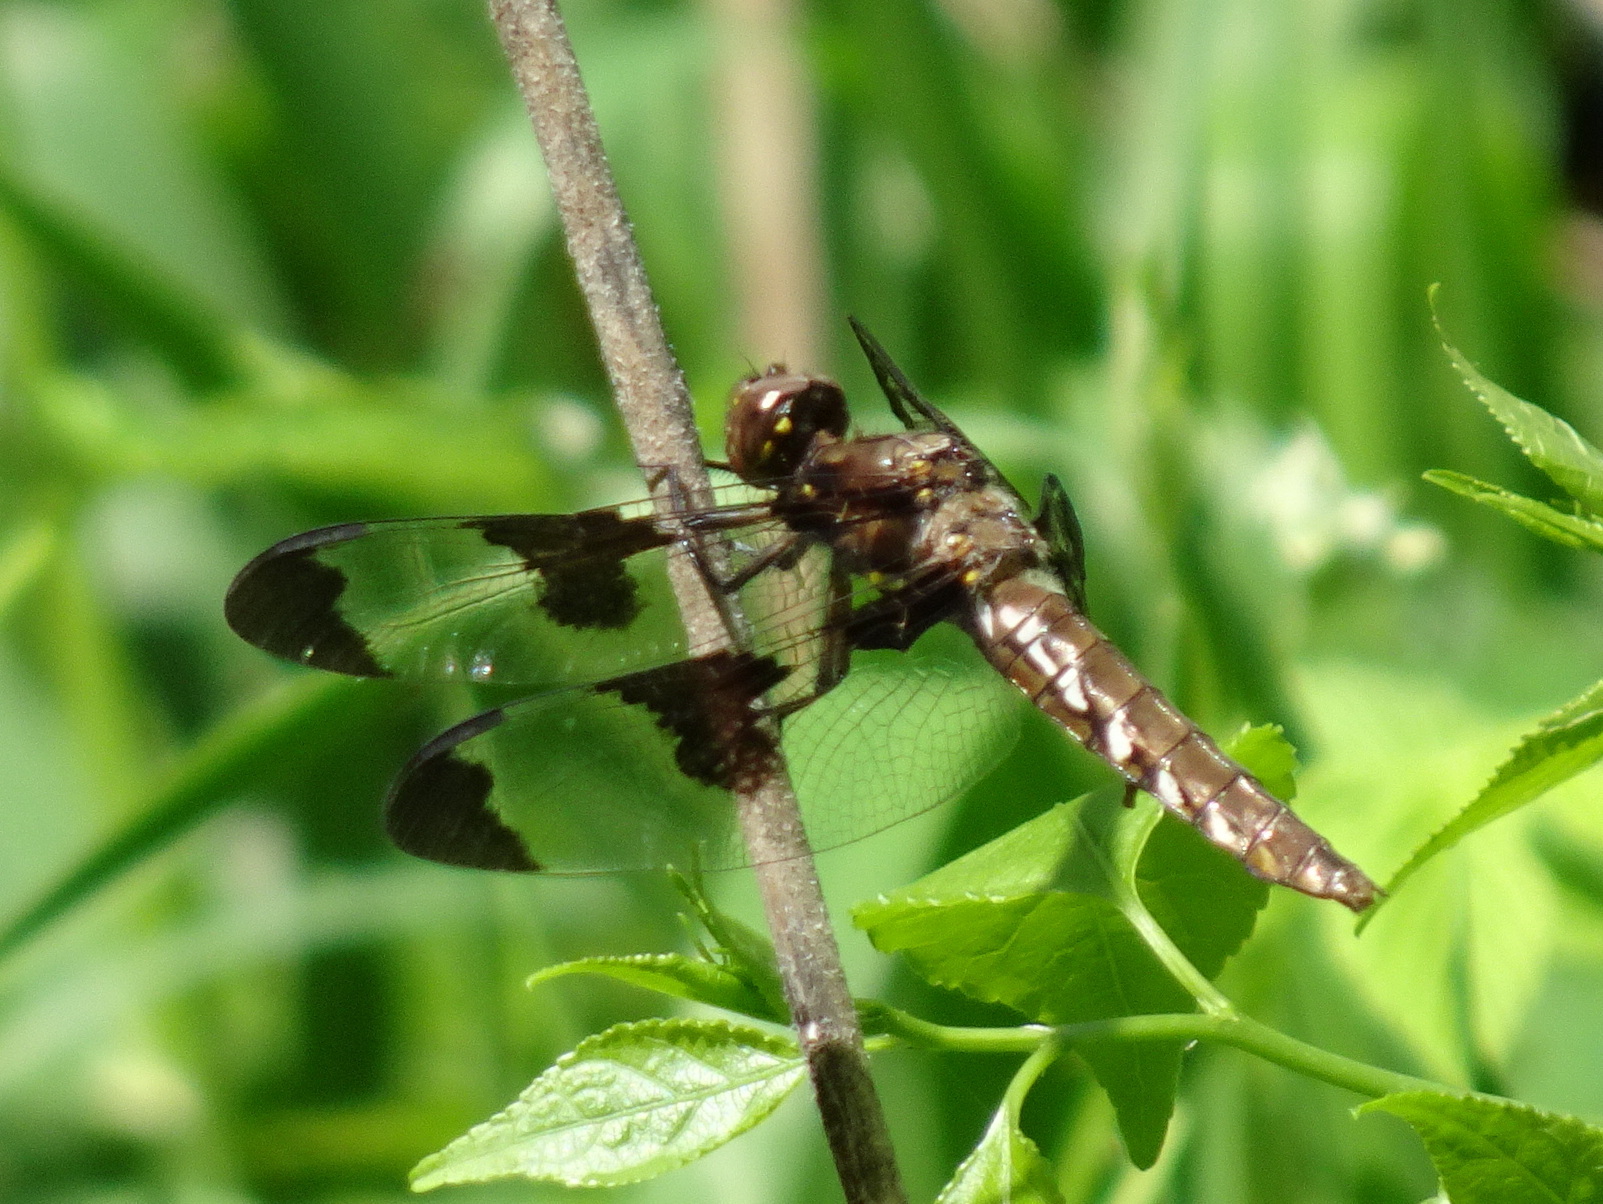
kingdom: Animalia
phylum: Arthropoda
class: Insecta
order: Odonata
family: Libellulidae
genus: Plathemis
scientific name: Plathemis lydia
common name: Common whitetail
